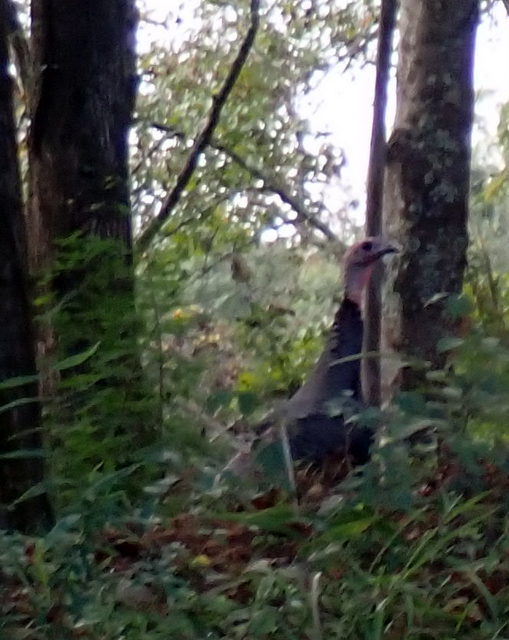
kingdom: Animalia
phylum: Chordata
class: Aves
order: Galliformes
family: Phasianidae
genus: Meleagris
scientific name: Meleagris gallopavo
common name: Wild turkey
